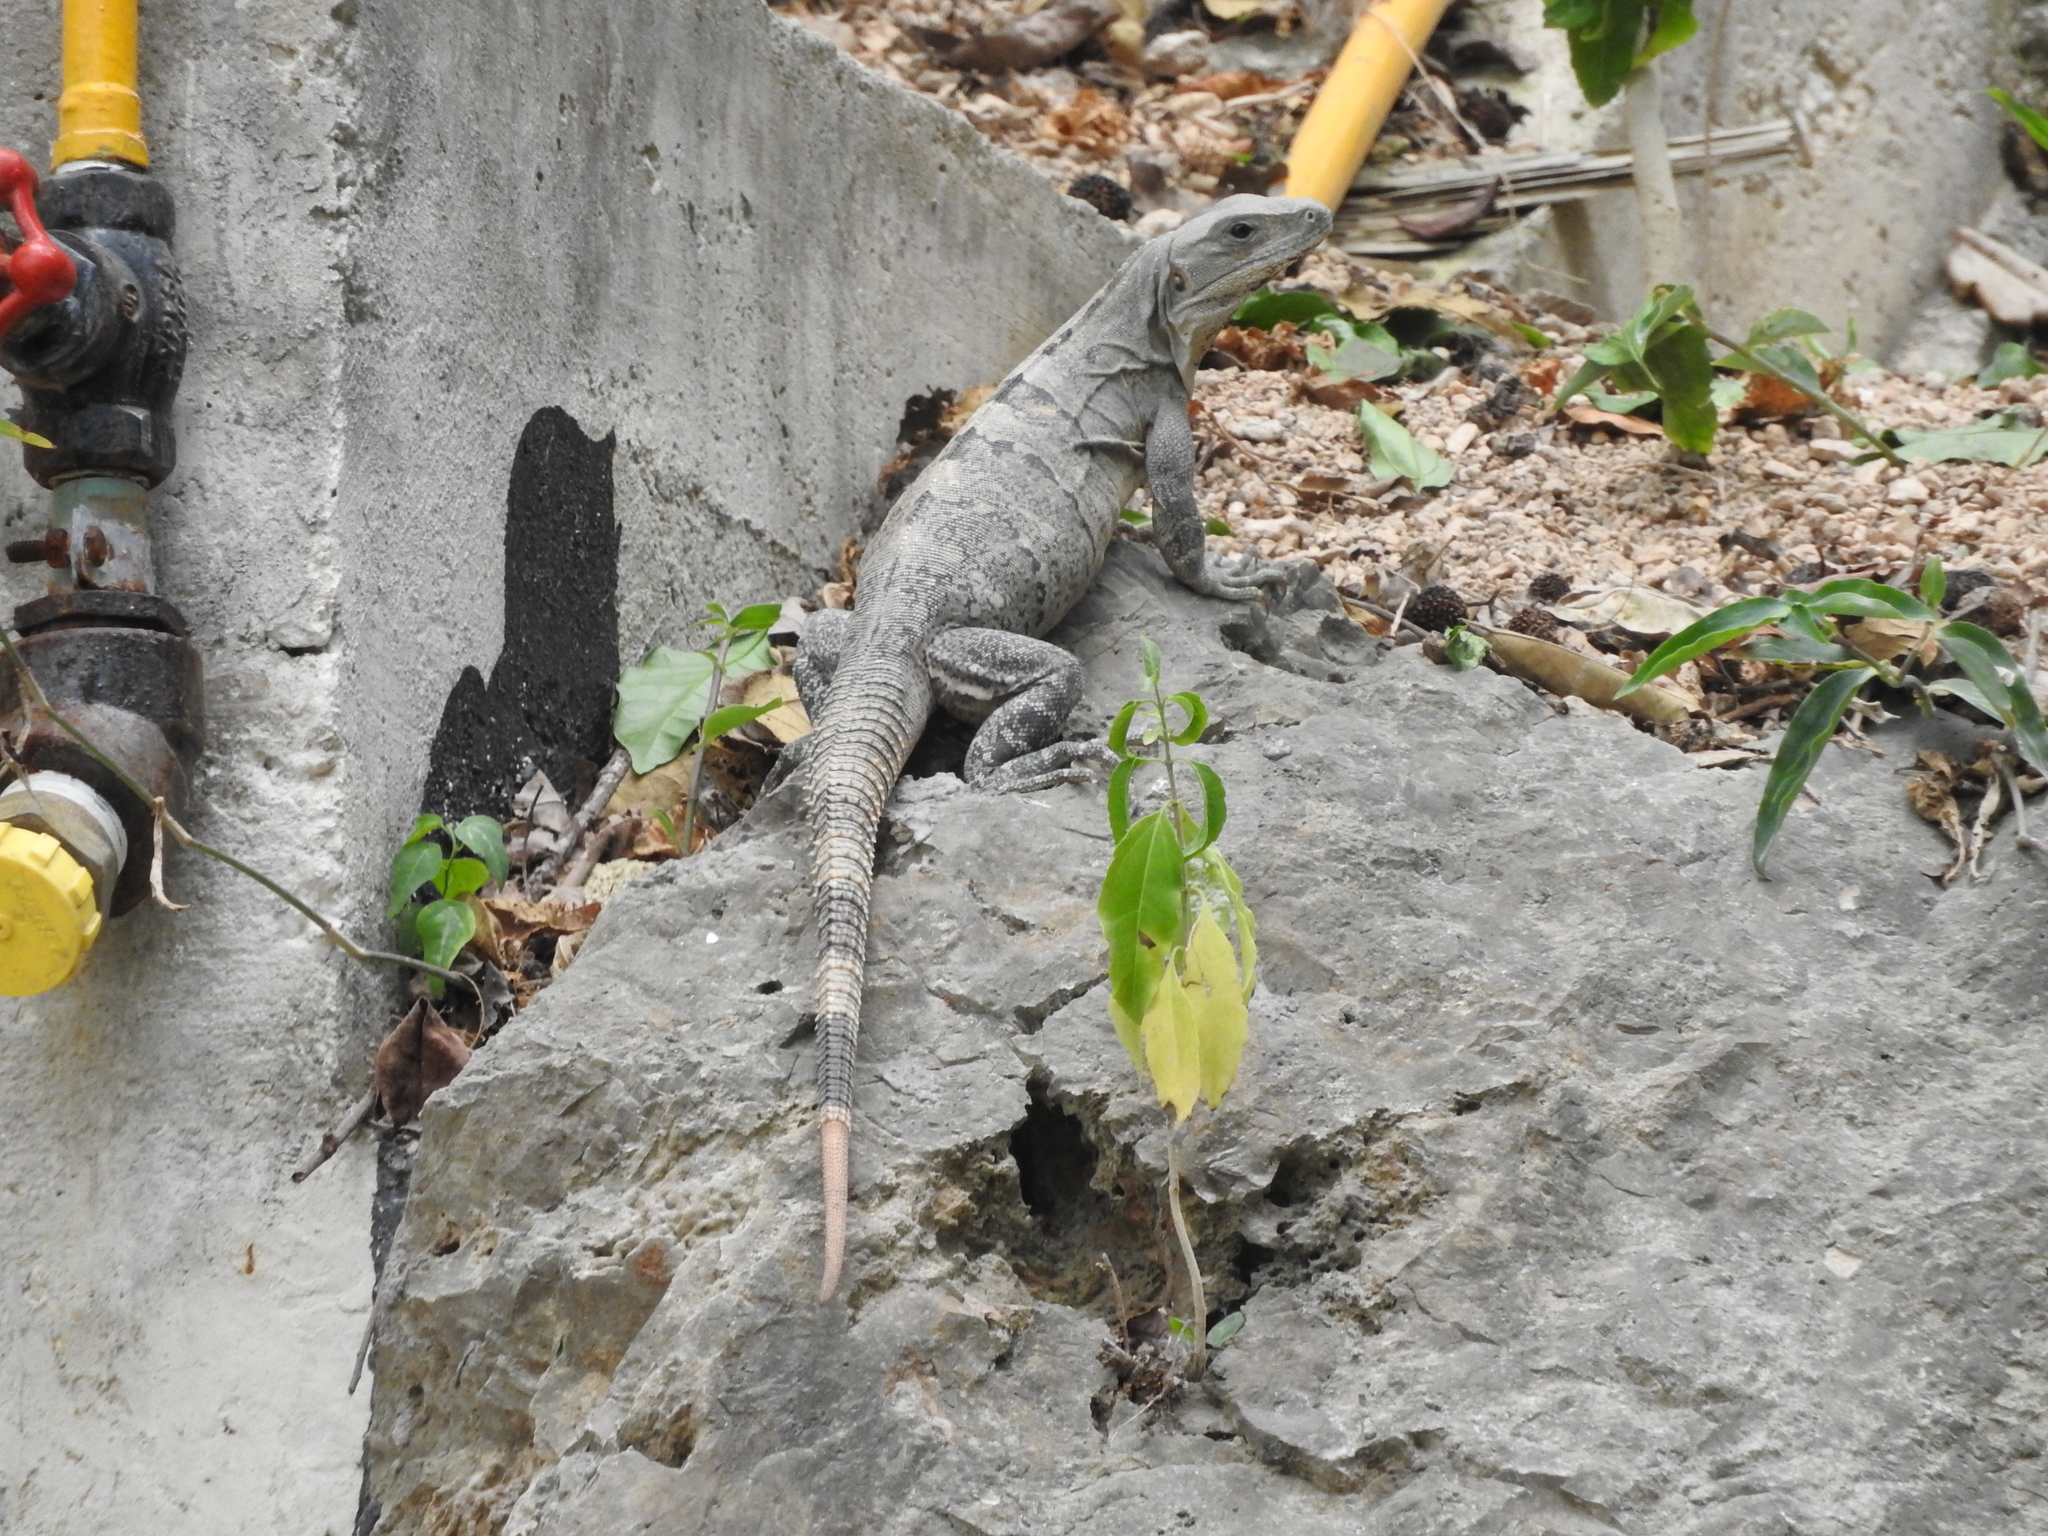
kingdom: Animalia
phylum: Chordata
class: Squamata
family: Iguanidae
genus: Ctenosaura
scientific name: Ctenosaura similis
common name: Black spiny-tailed iguana
